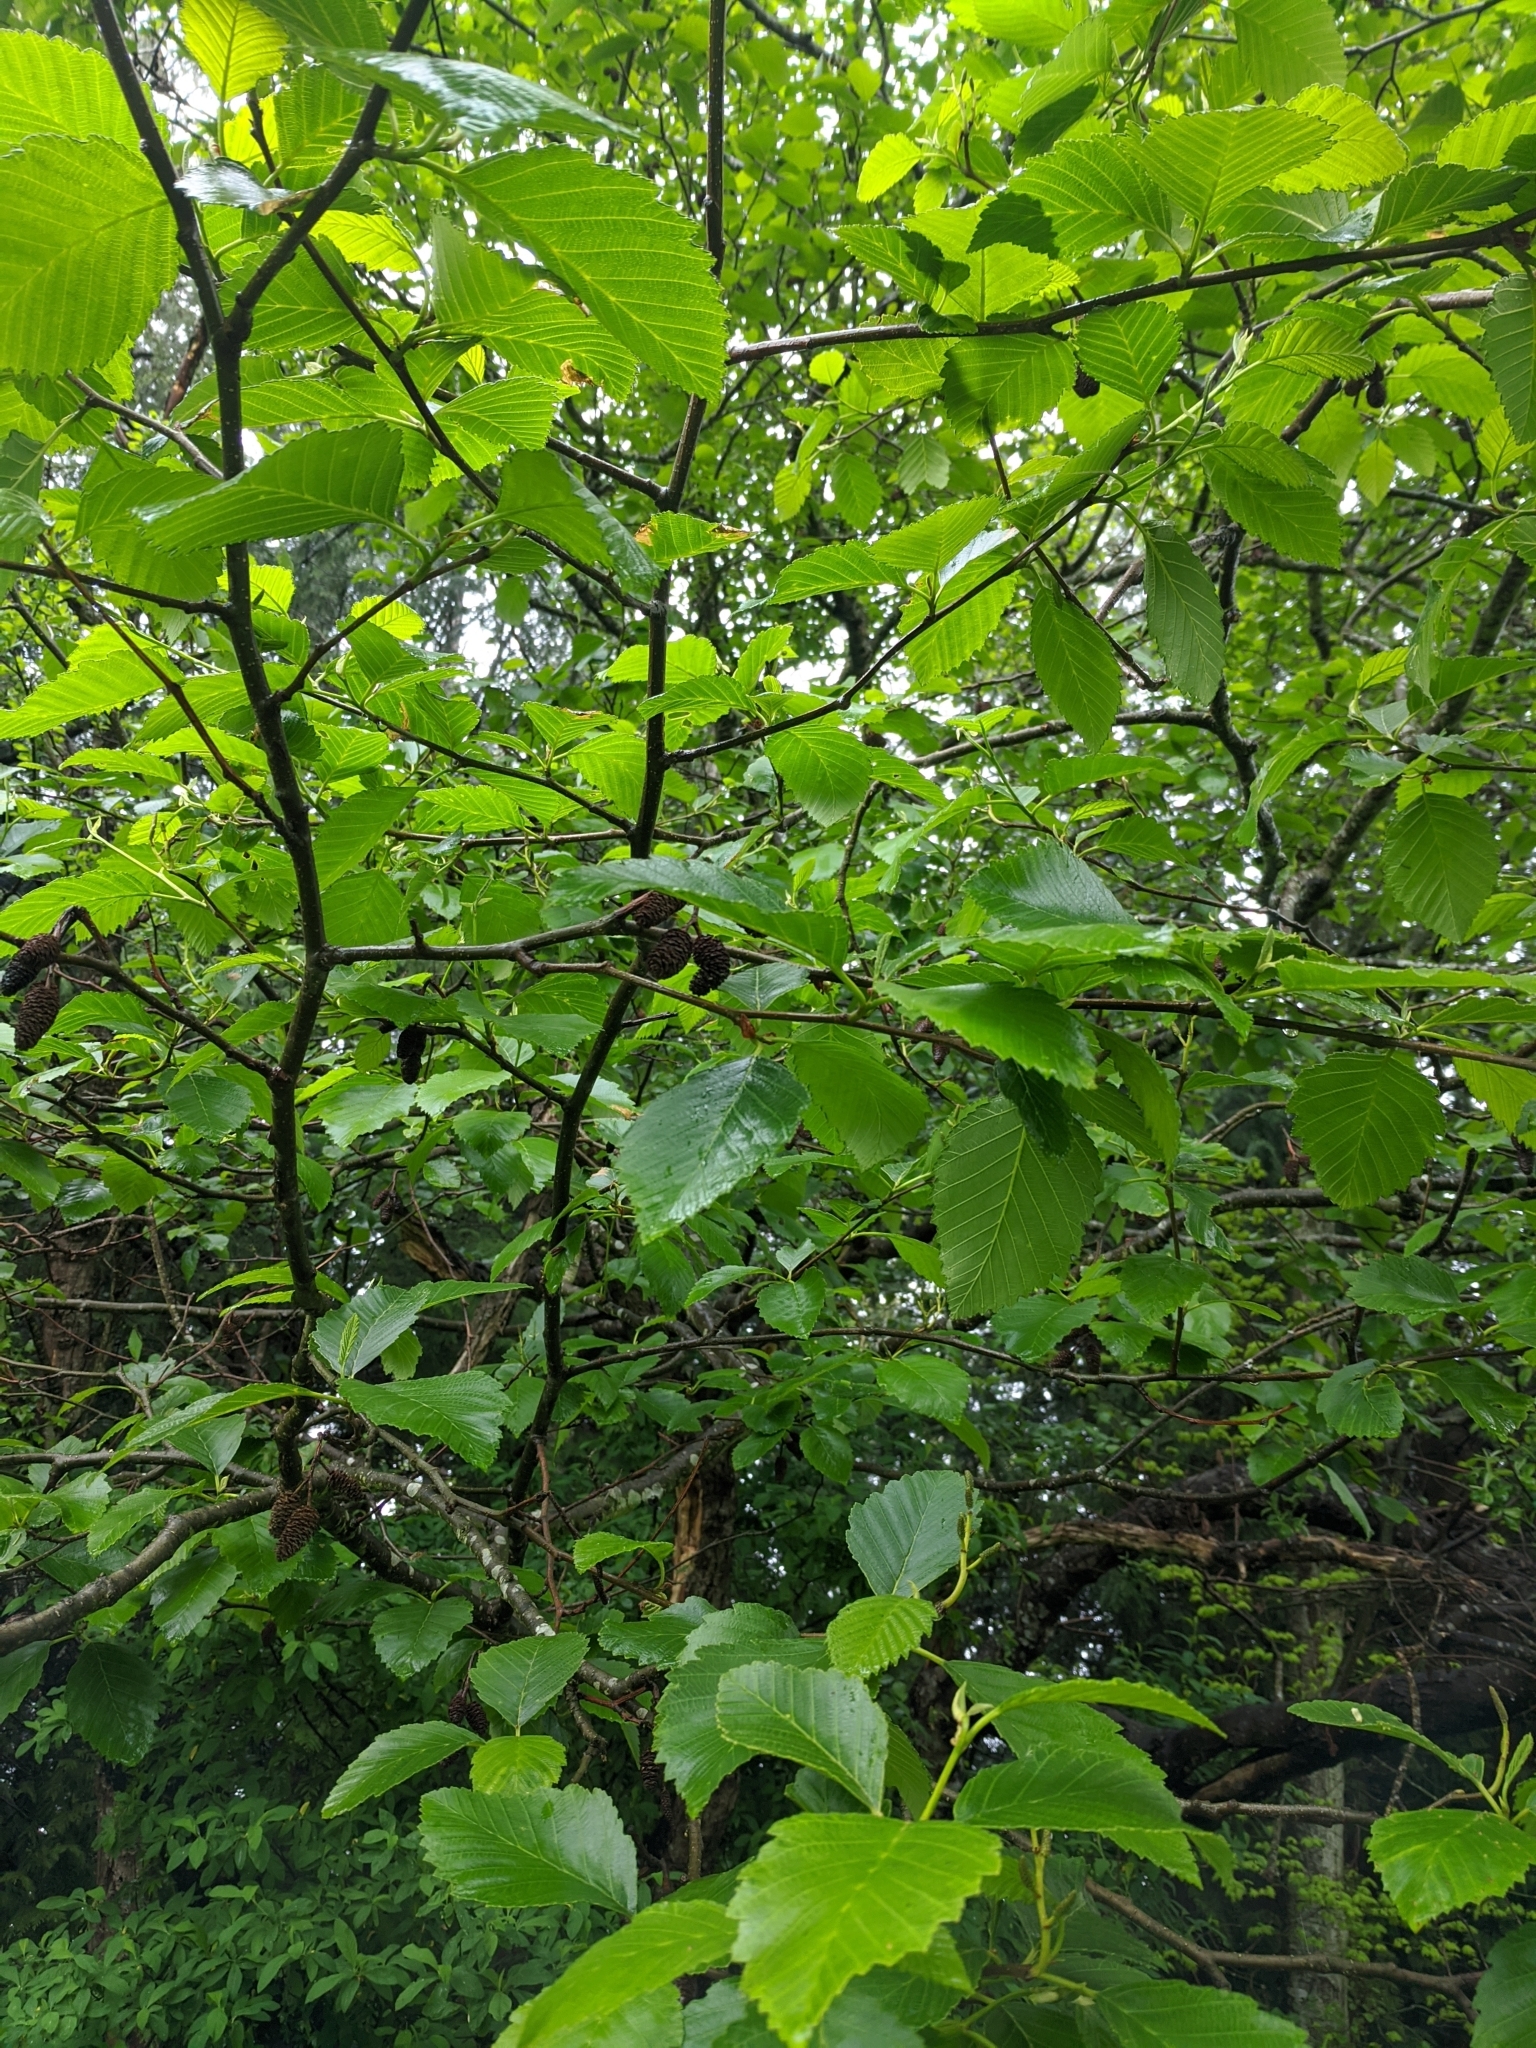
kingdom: Plantae
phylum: Tracheophyta
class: Magnoliopsida
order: Fagales
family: Betulaceae
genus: Alnus
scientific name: Alnus rubra
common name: Red alder
